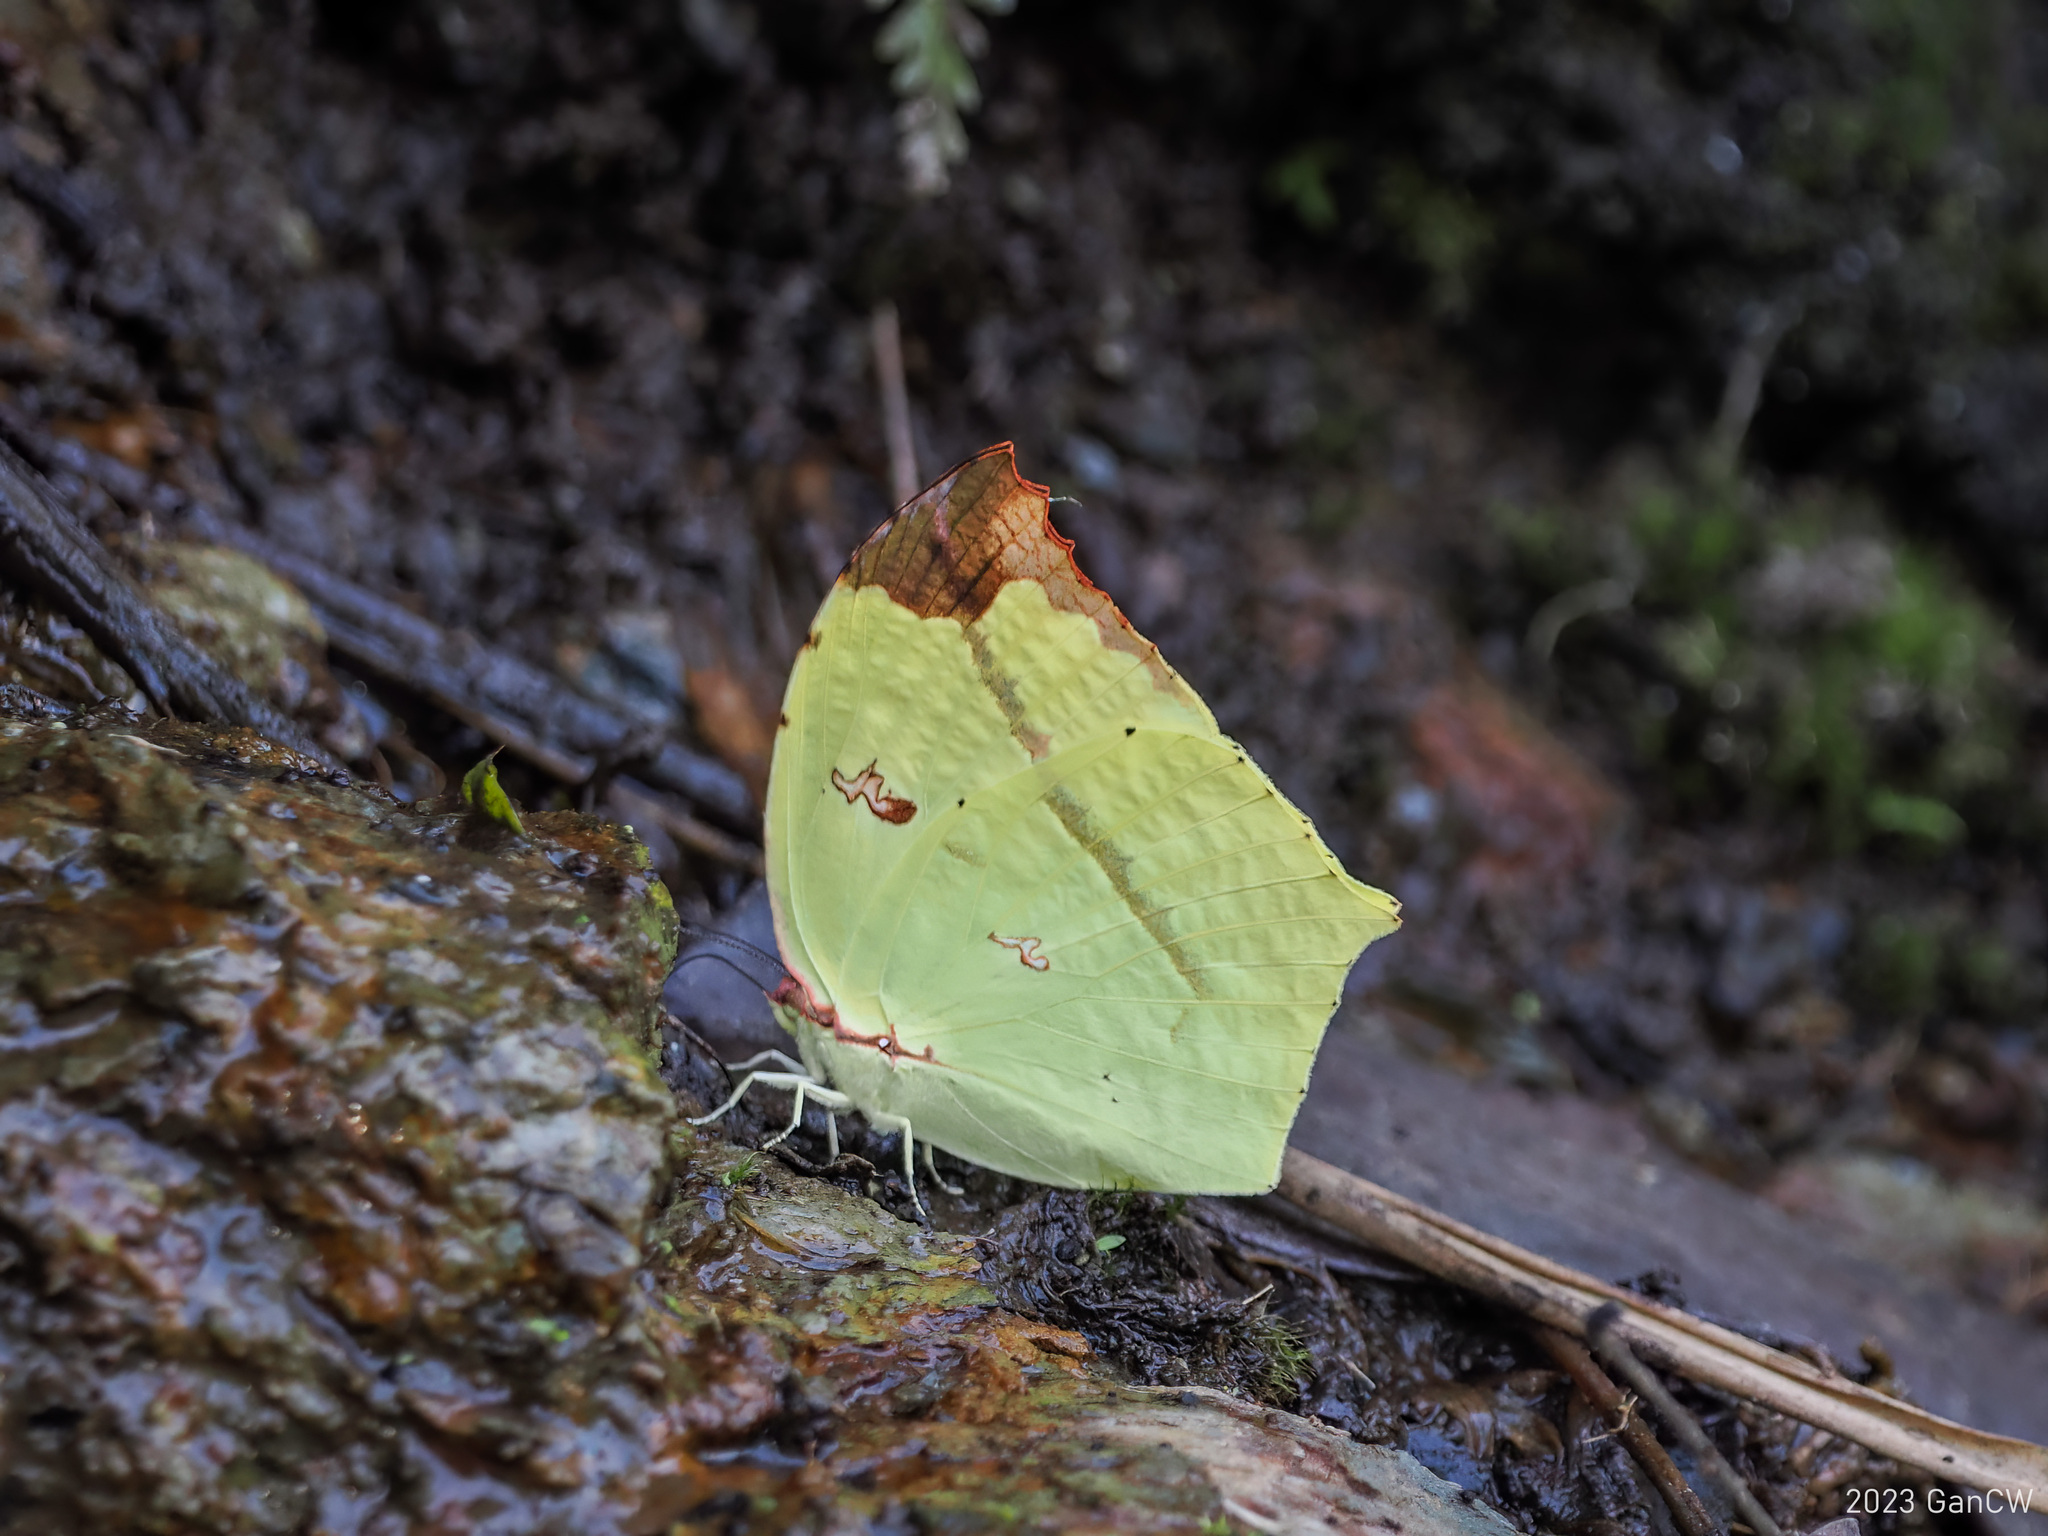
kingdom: Animalia
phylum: Arthropoda
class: Insecta
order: Lepidoptera
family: Pieridae
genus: Dercas
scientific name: Dercas verhuelli
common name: Tailed sulphur
